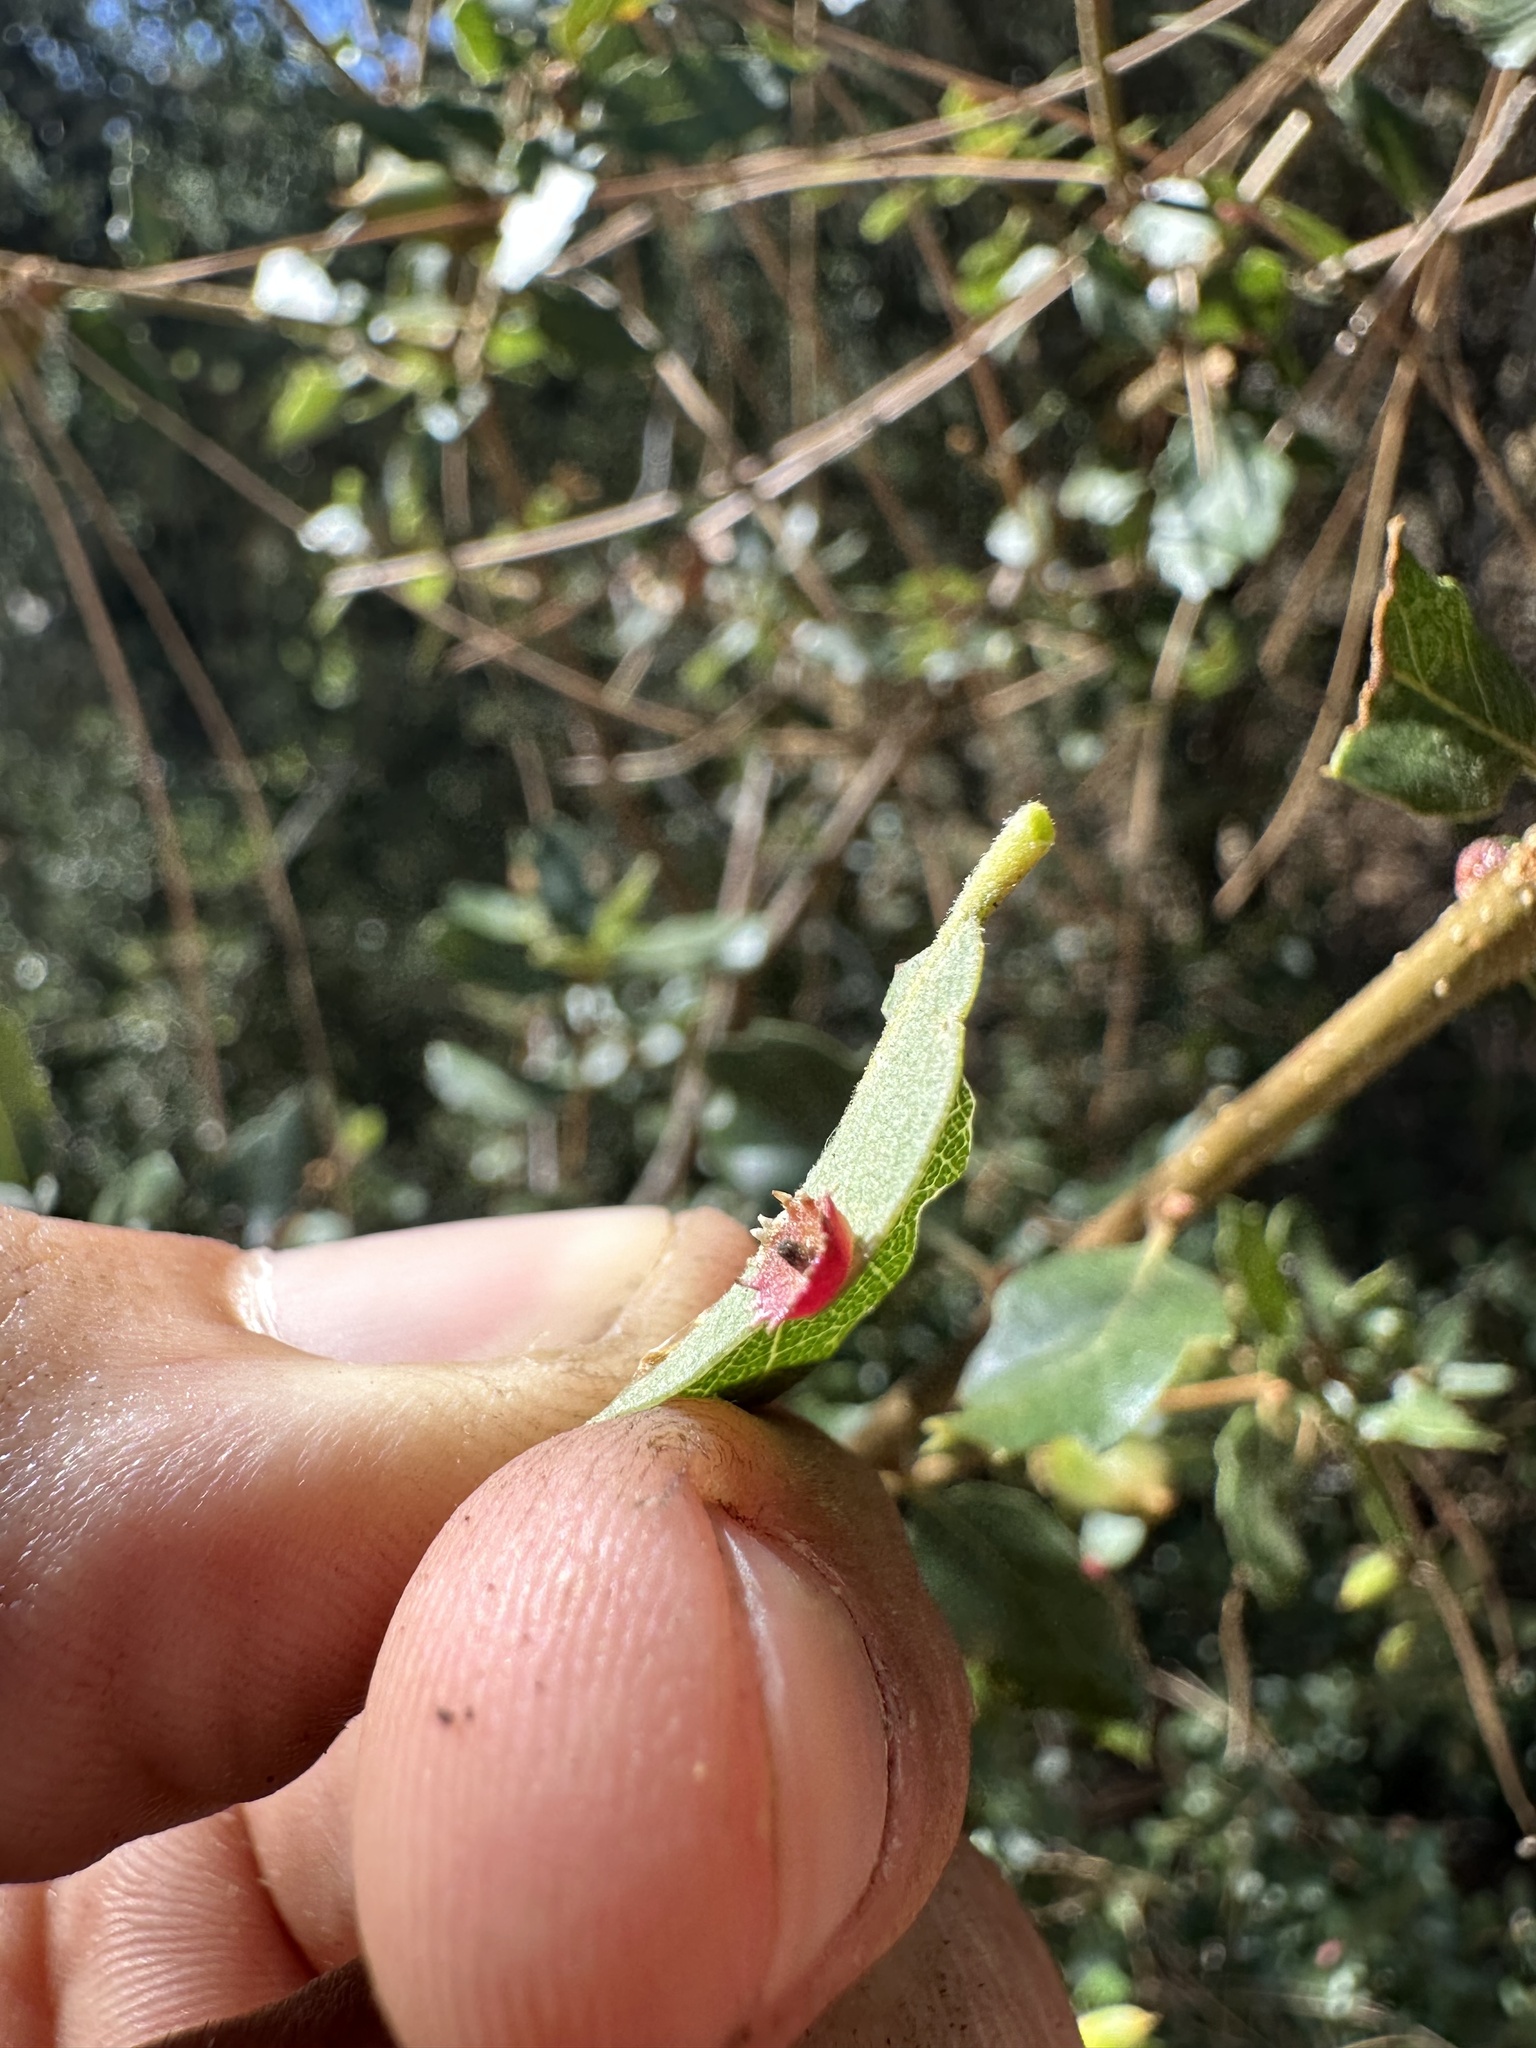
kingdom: Animalia
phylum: Arthropoda
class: Insecta
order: Hymenoptera
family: Cynipidae
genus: Andricus
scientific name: Andricus
